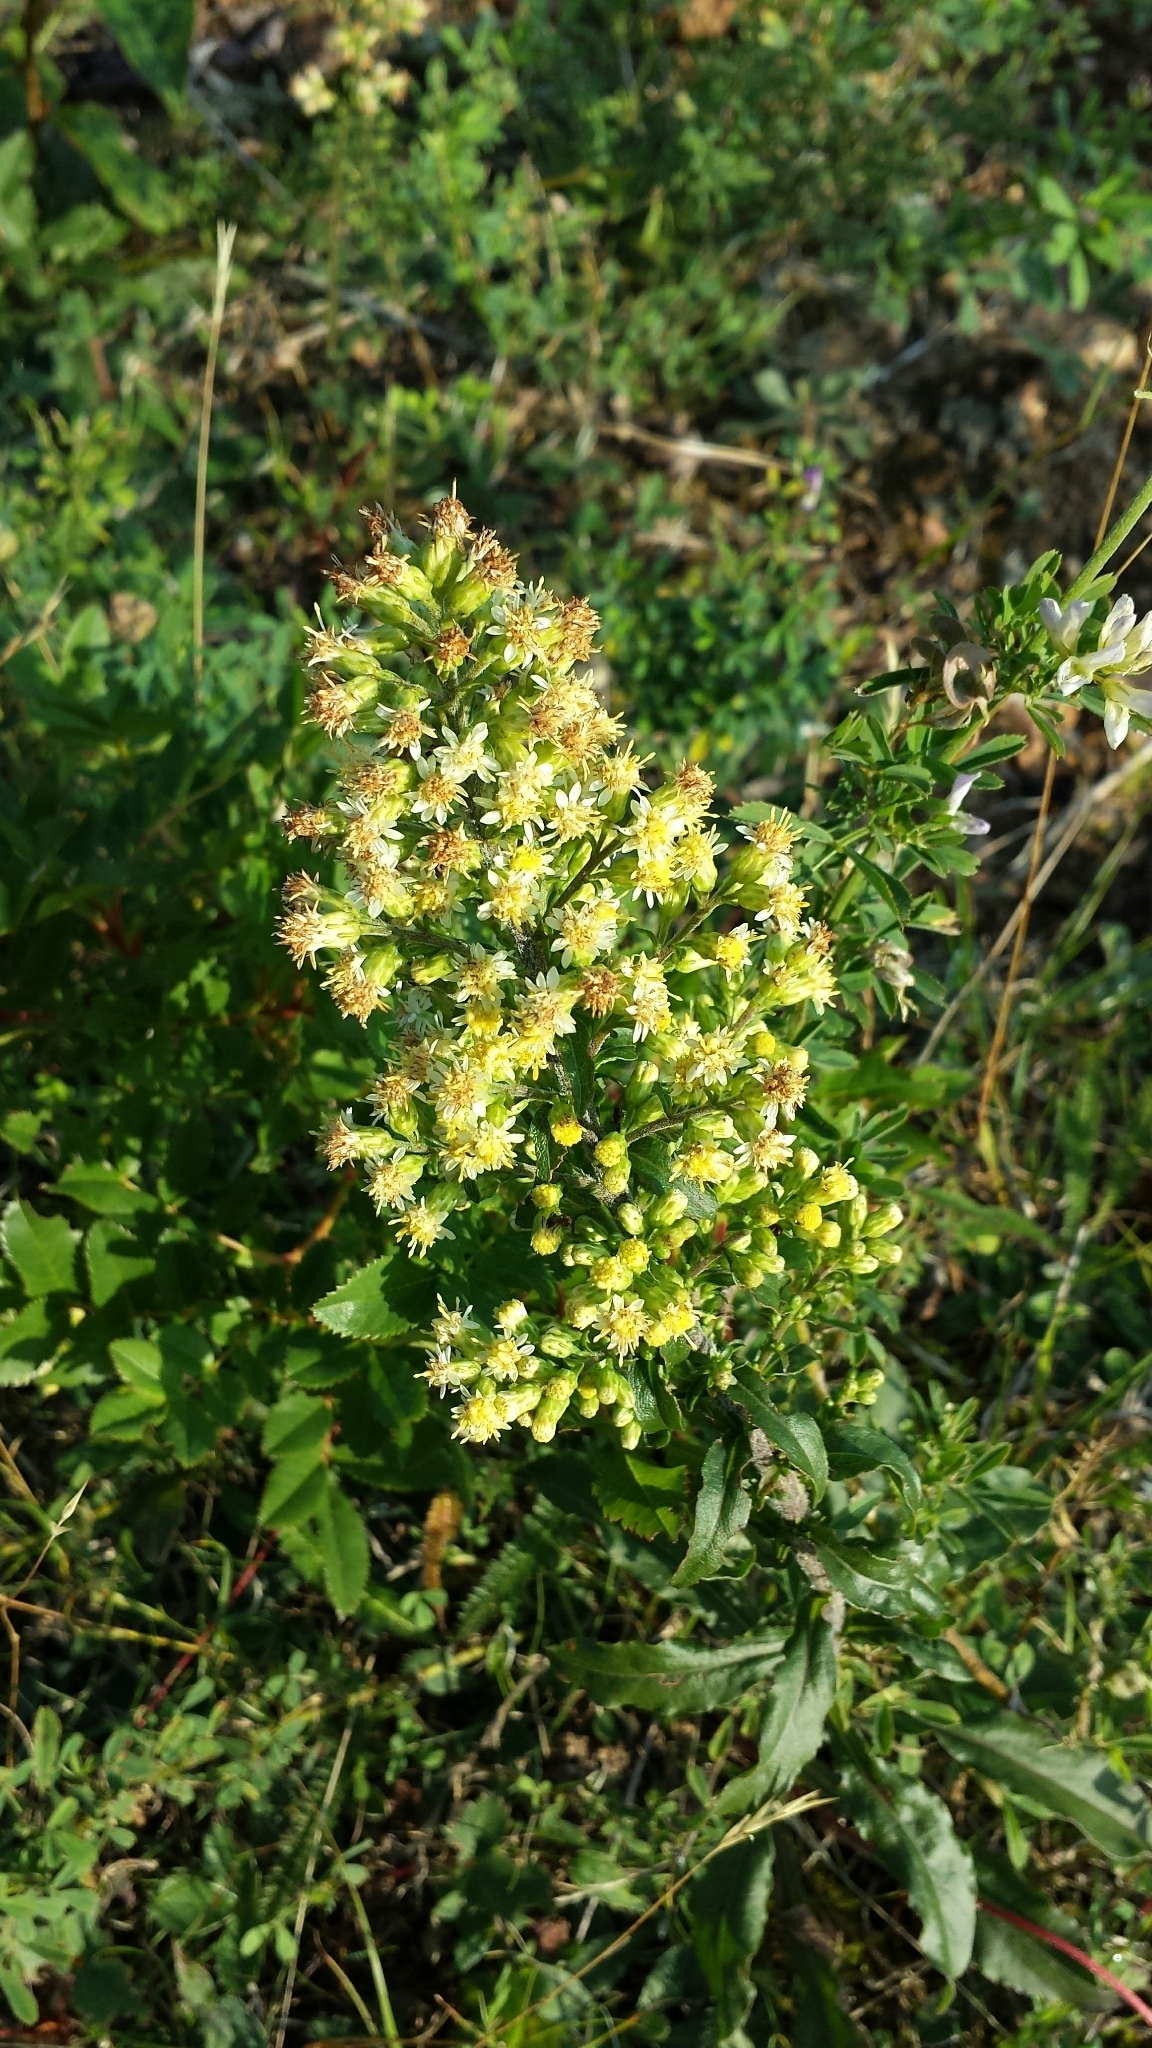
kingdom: Plantae
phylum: Tracheophyta
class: Magnoliopsida
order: Asterales
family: Asteraceae
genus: Solidago
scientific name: Solidago bicolor
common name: Silverrod
